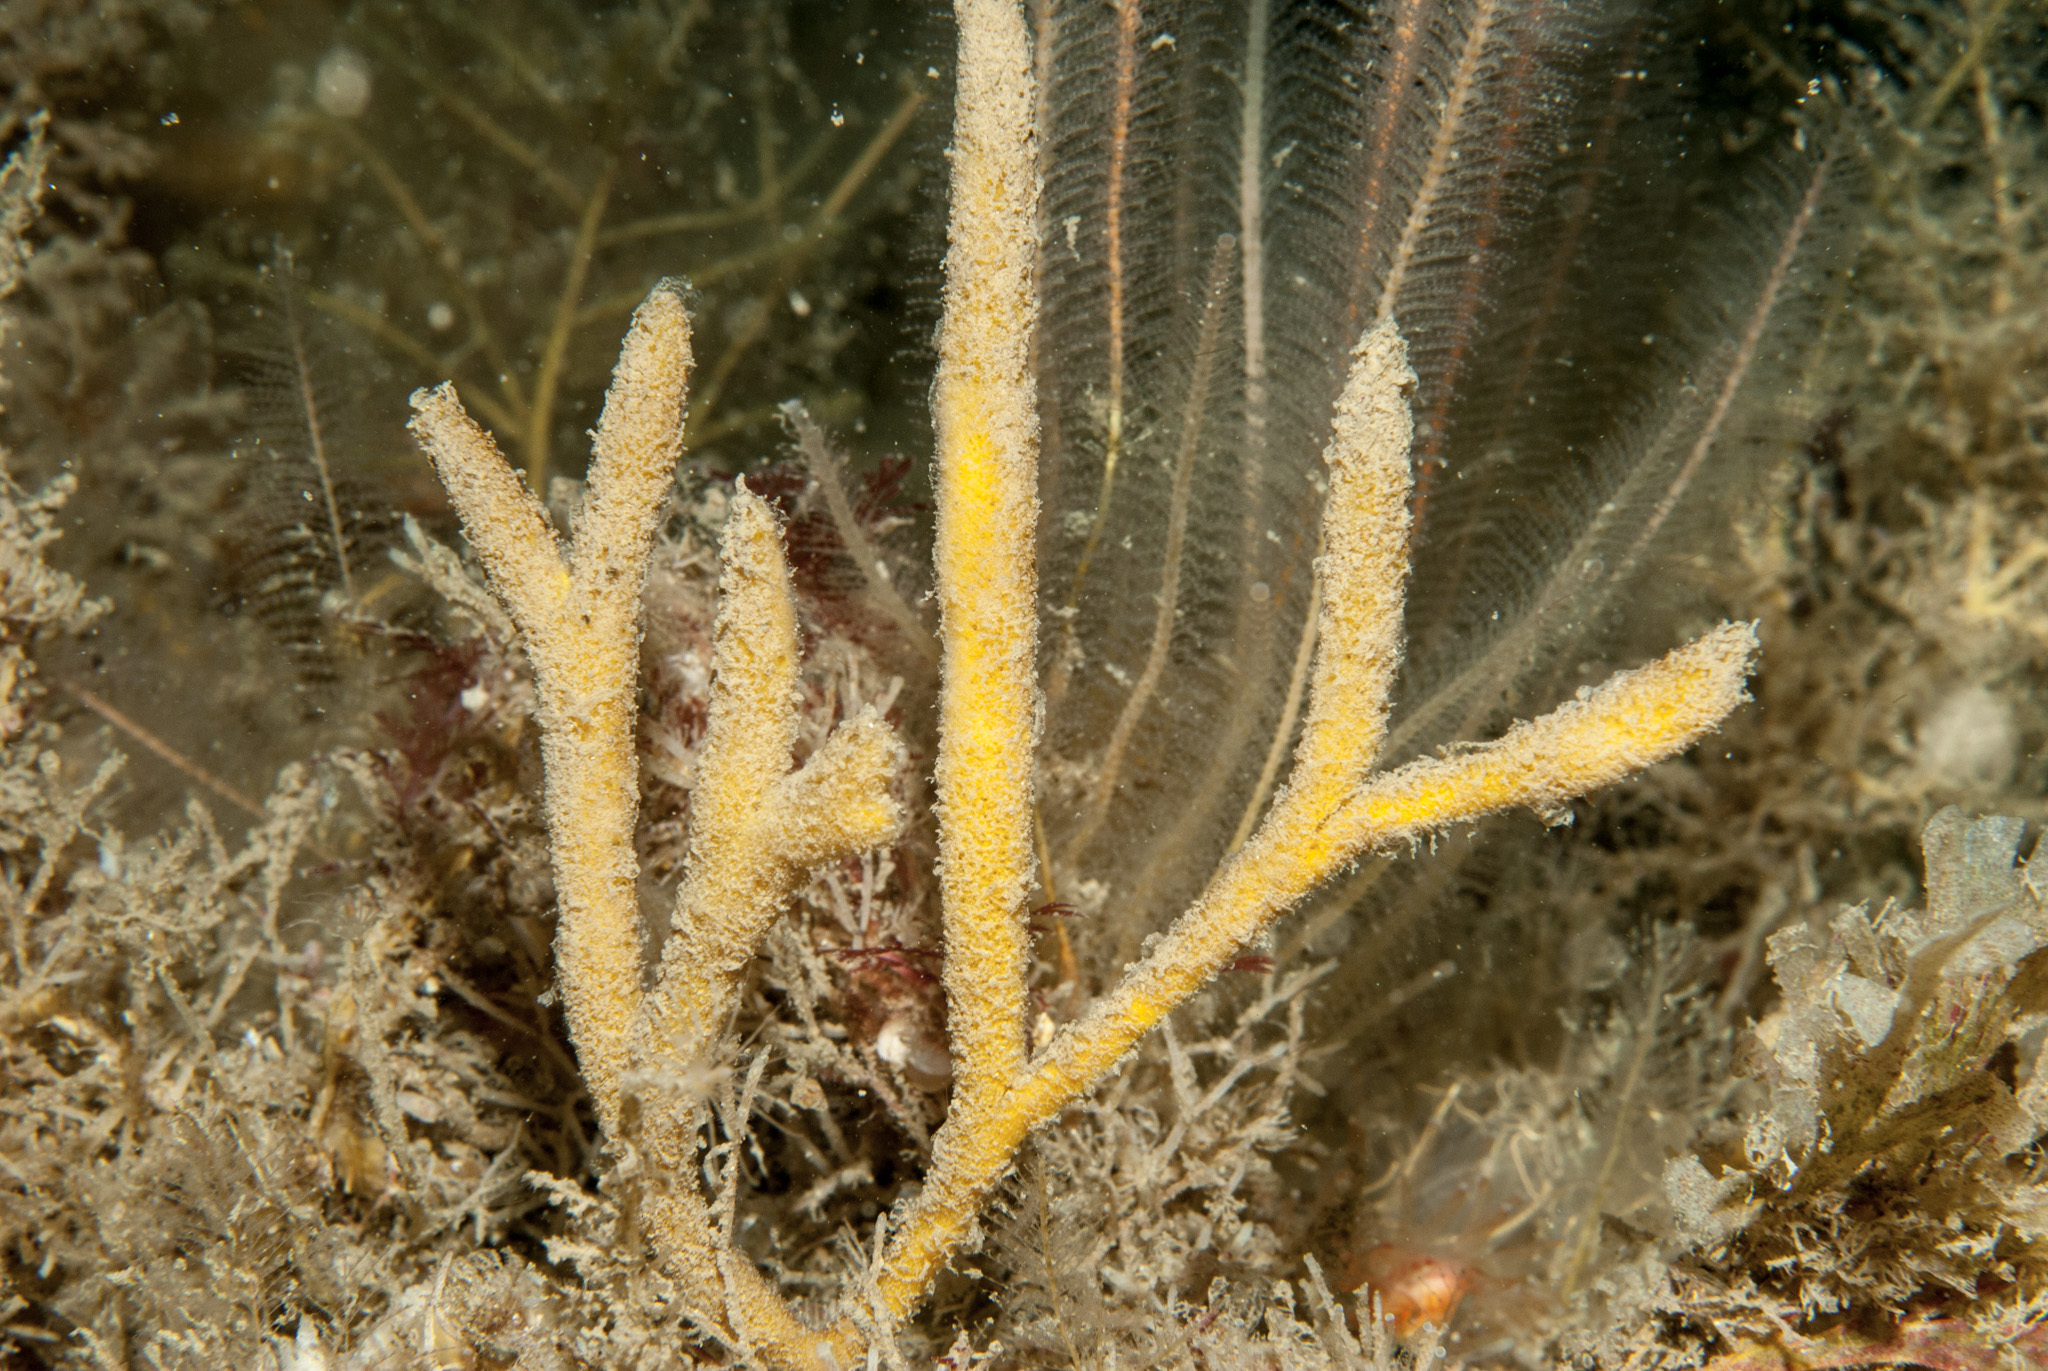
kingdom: Animalia
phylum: Porifera
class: Demospongiae
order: Axinellida
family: Raspailiidae
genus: Raspailia
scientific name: Raspailia hispida
